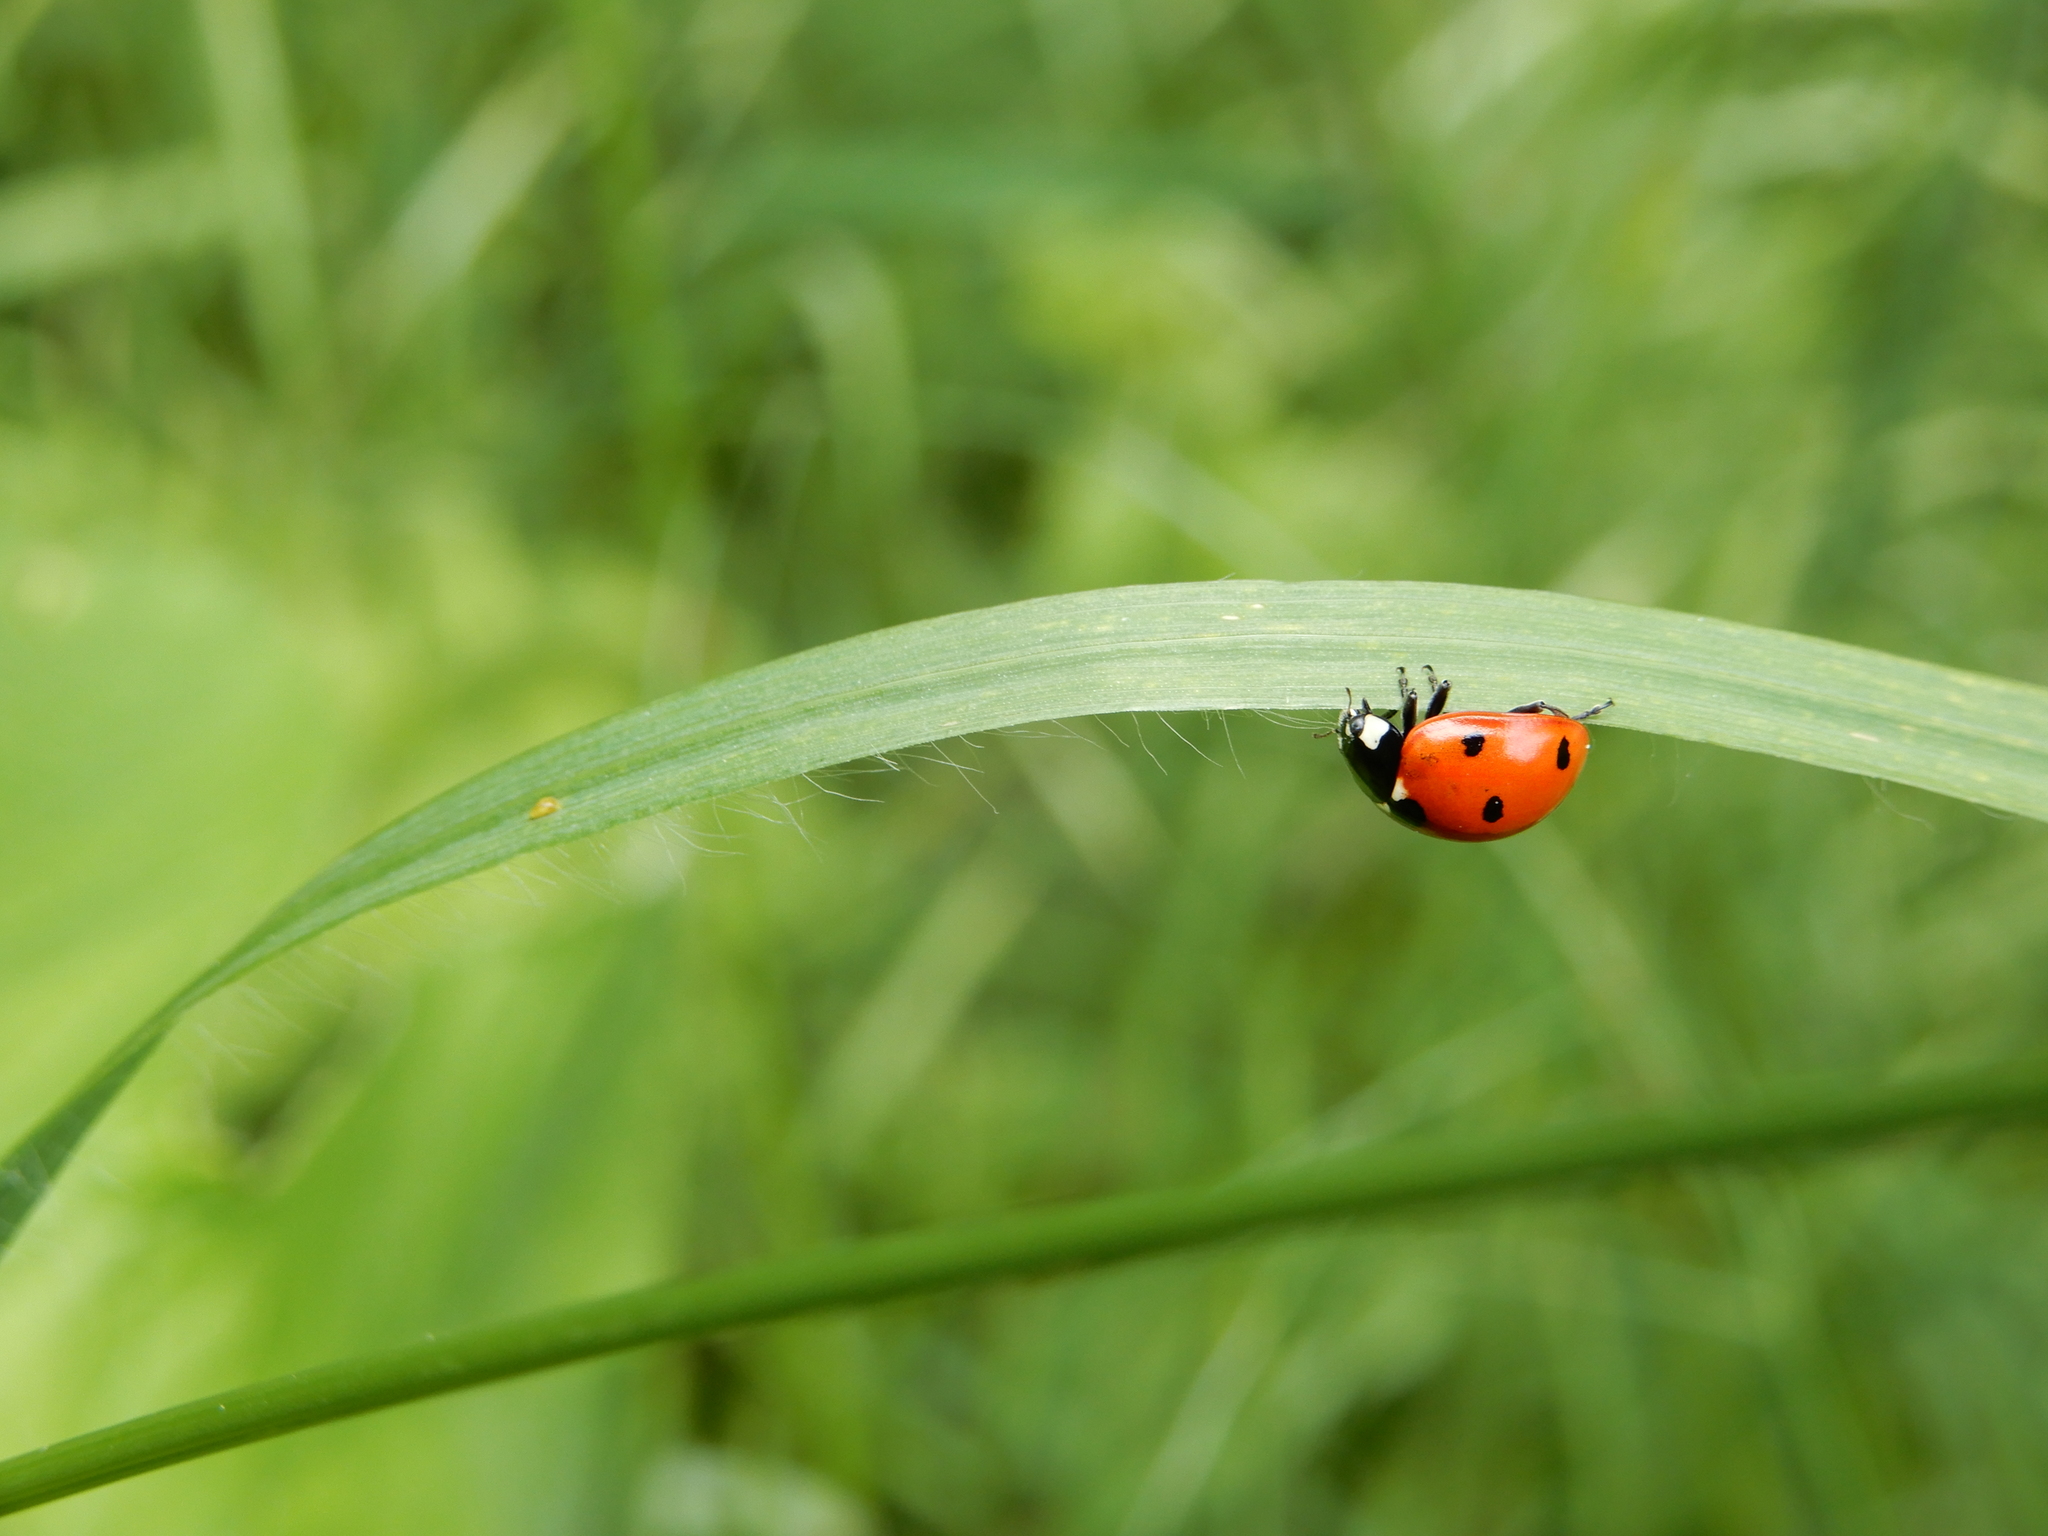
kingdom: Animalia
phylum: Arthropoda
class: Insecta
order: Coleoptera
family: Coccinellidae
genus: Coccinella
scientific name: Coccinella septempunctata
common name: Sevenspotted lady beetle
